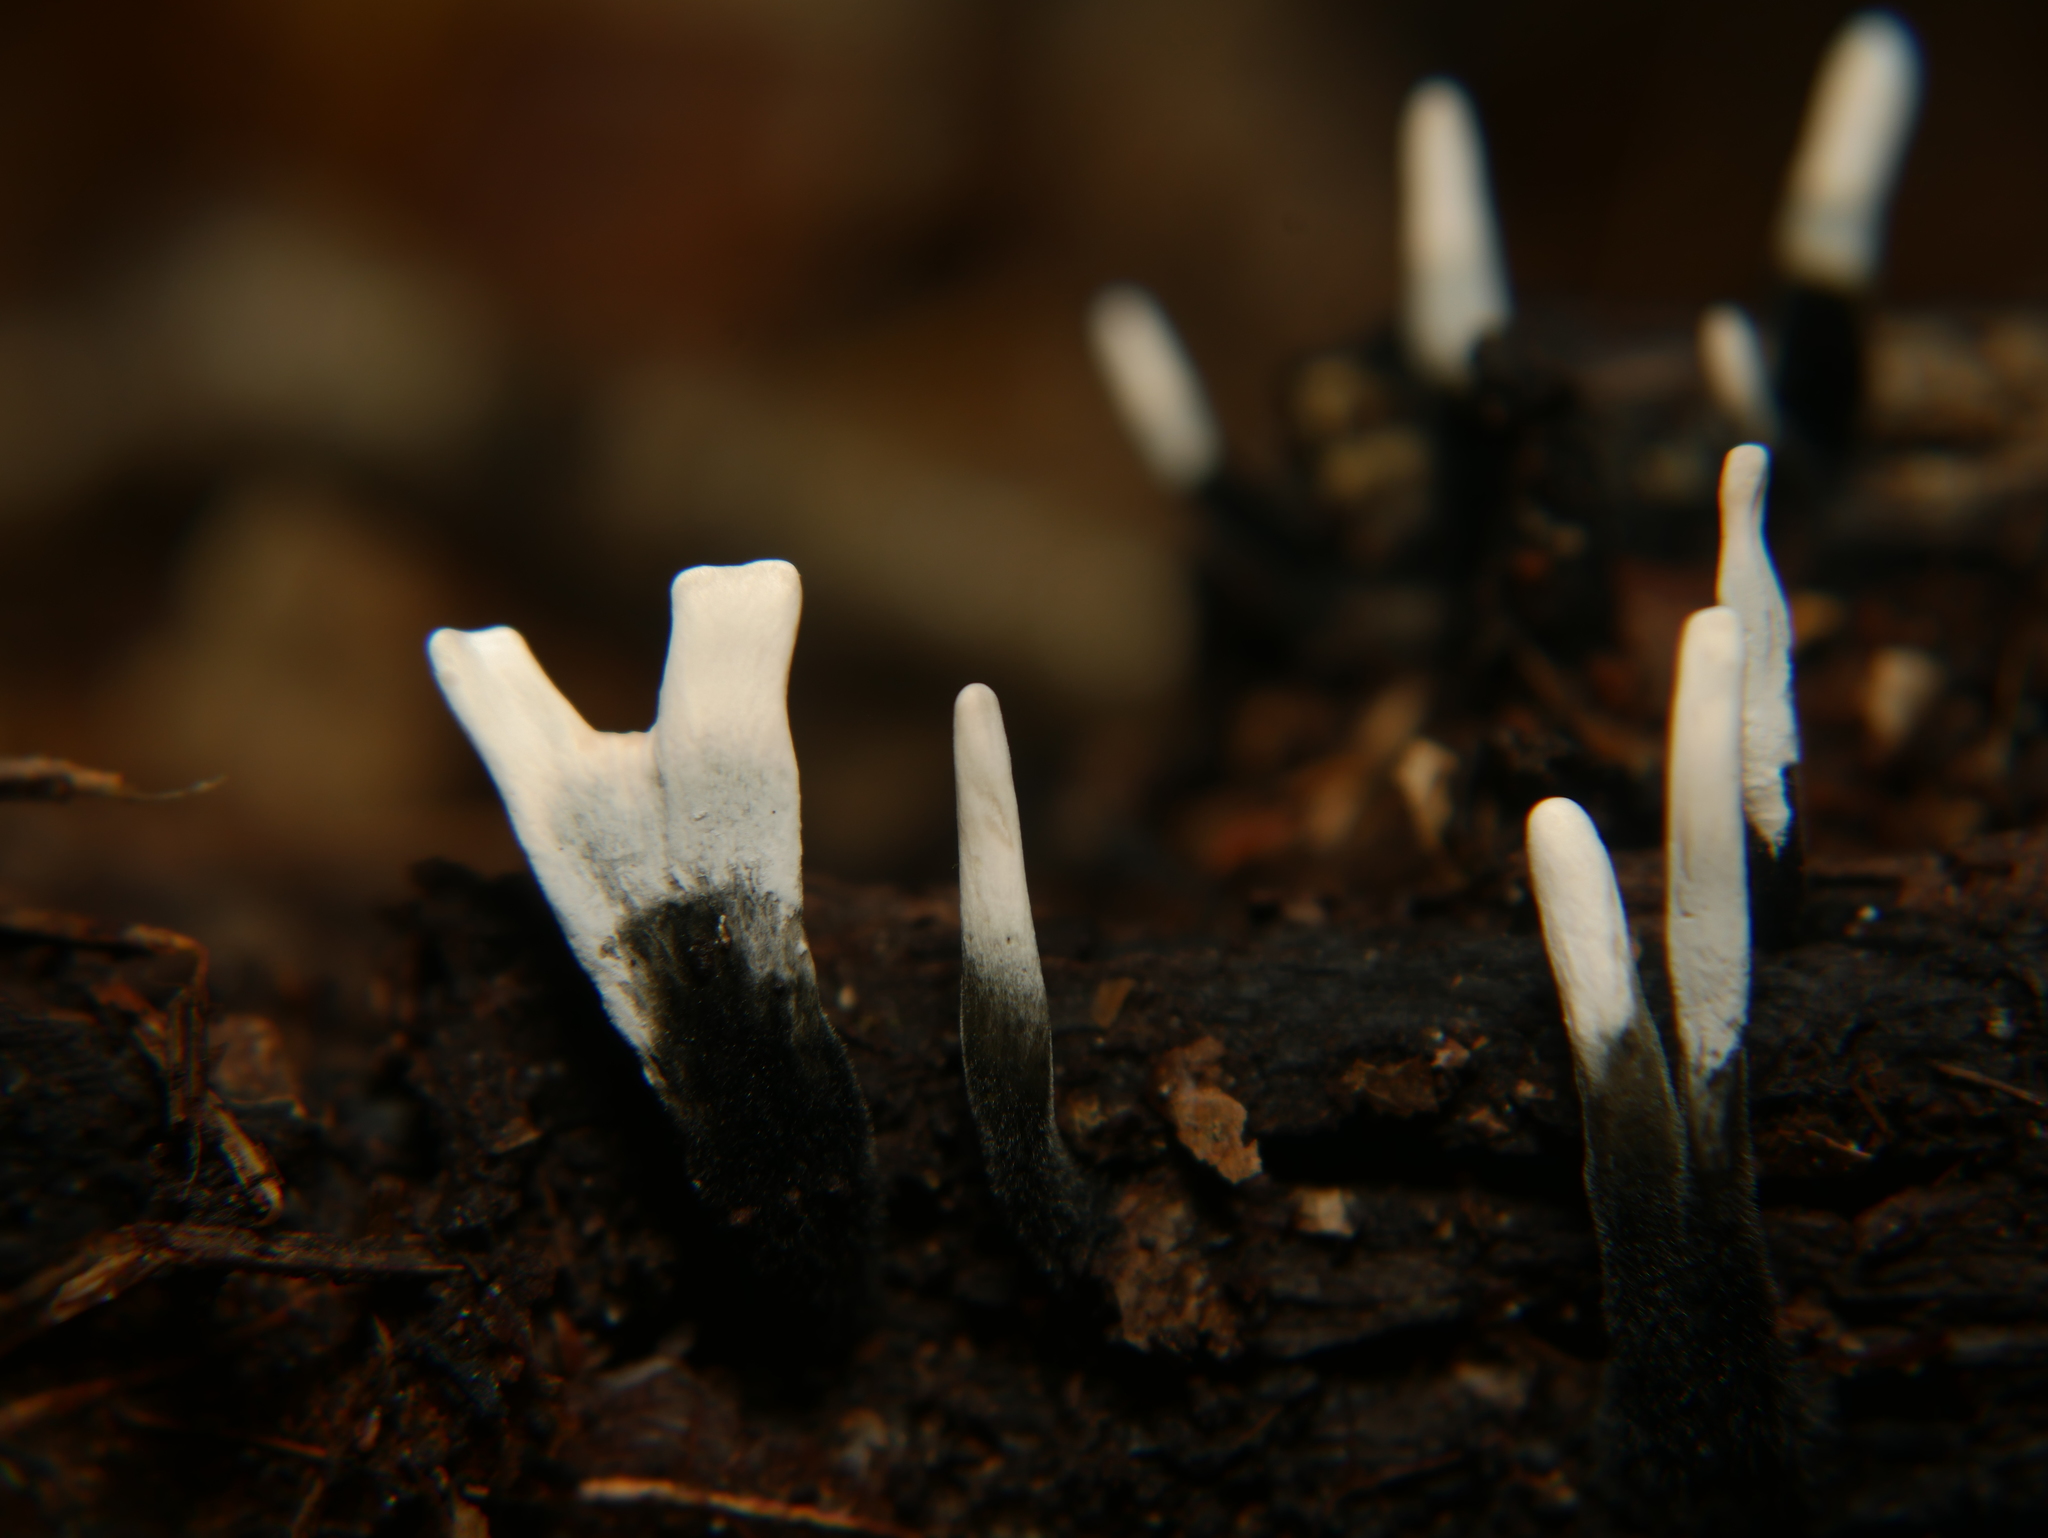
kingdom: Fungi
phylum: Ascomycota
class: Sordariomycetes
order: Xylariales
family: Xylariaceae
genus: Xylaria
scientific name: Xylaria hypoxylon
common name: Candle-snuff fungus
